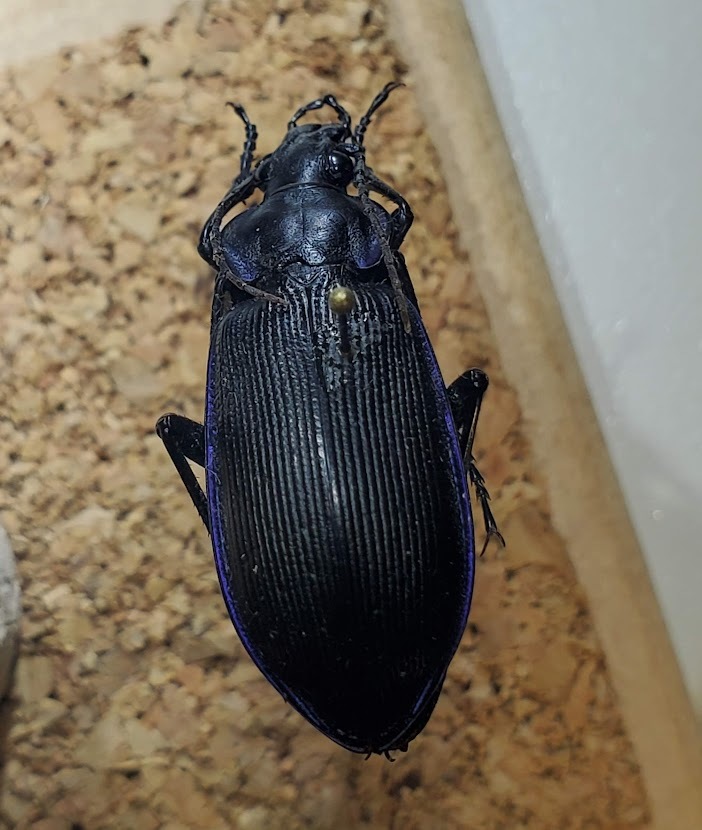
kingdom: Animalia
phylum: Arthropoda
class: Insecta
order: Coleoptera
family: Carabidae
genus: Calosoma
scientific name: Calosoma externum
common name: Narrow searcher beetle
